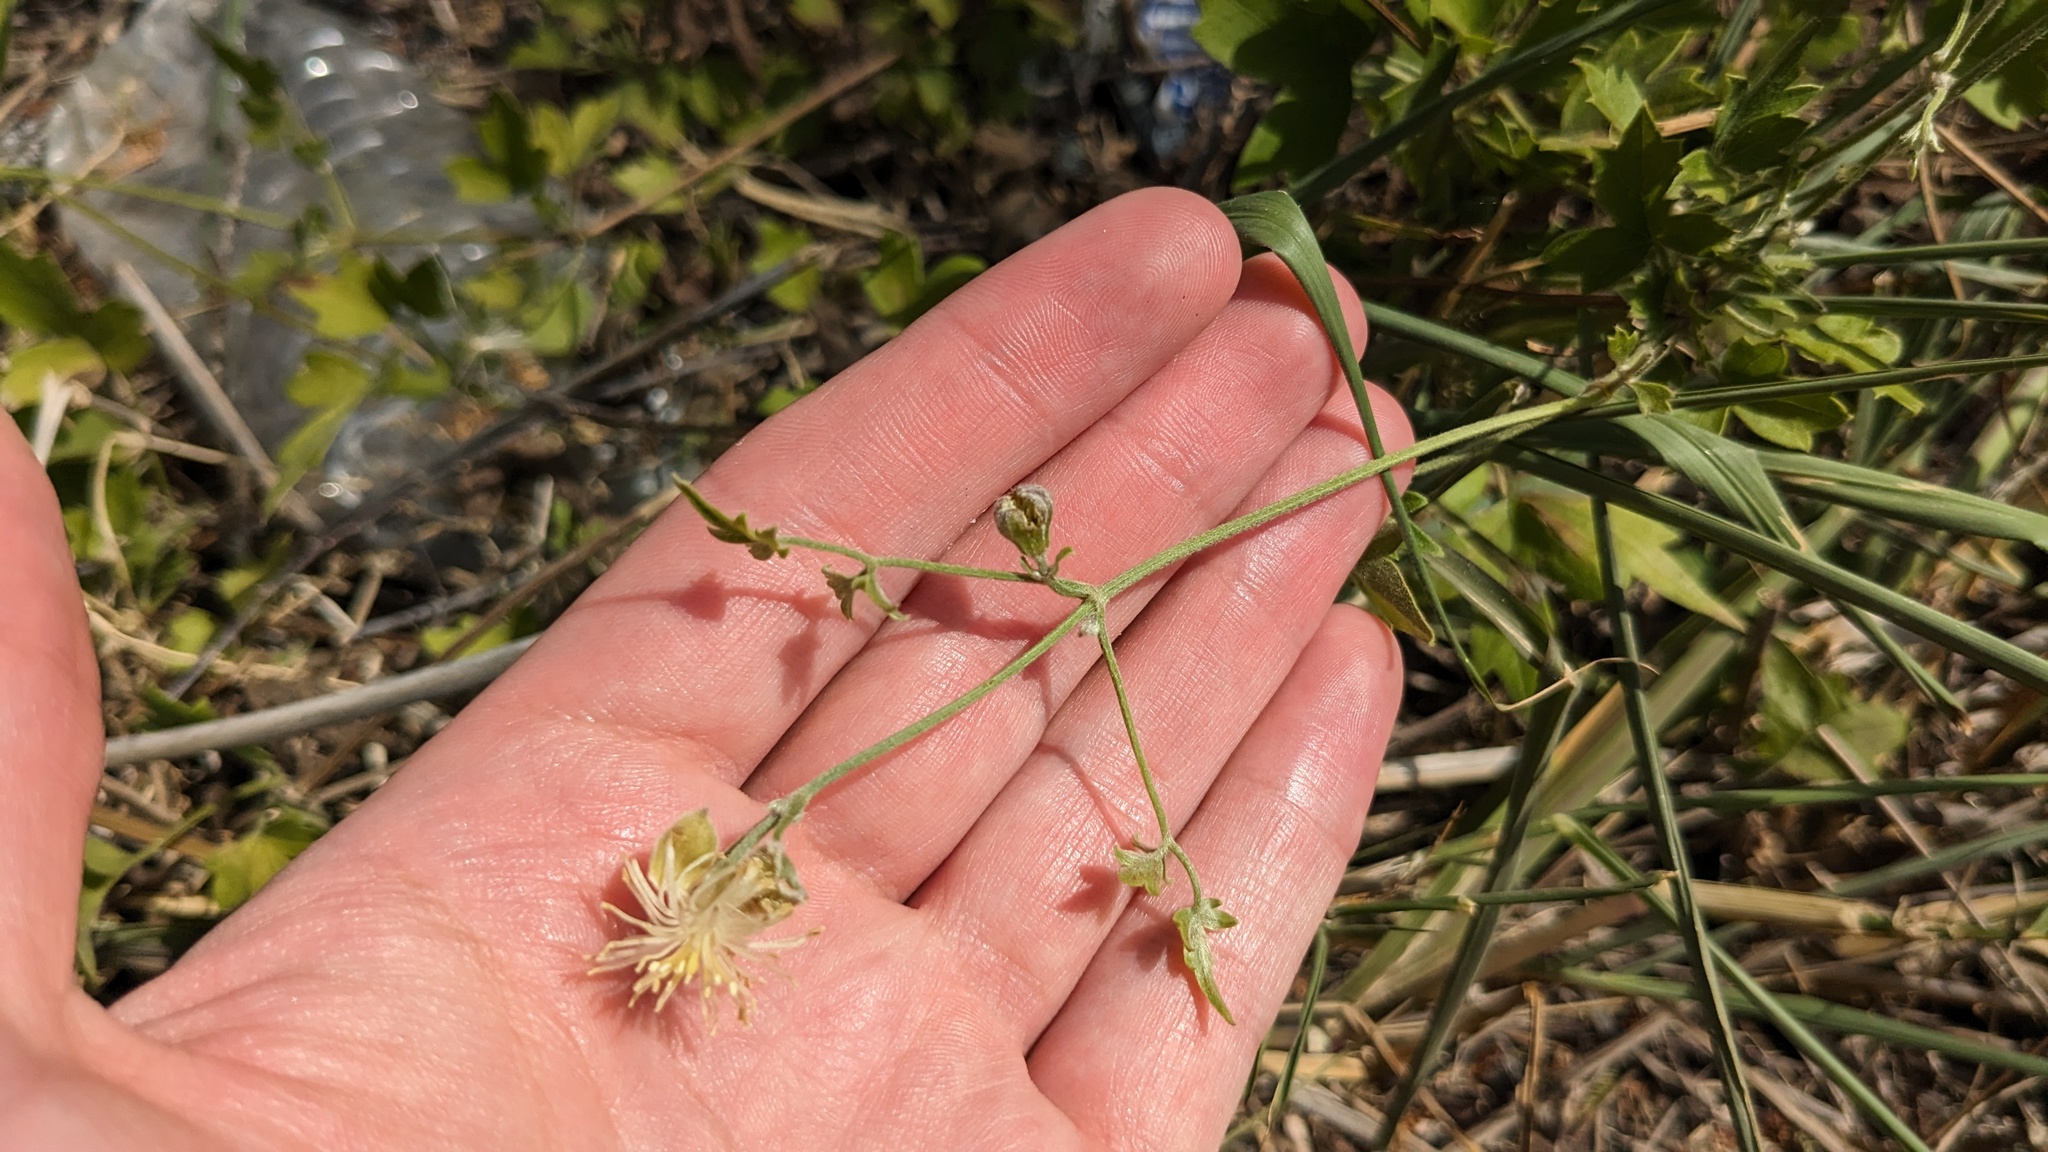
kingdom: Plantae
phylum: Tracheophyta
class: Magnoliopsida
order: Ranunculales
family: Ranunculaceae
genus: Clematis
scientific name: Clematis drummondii
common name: Texas virgin's bower
